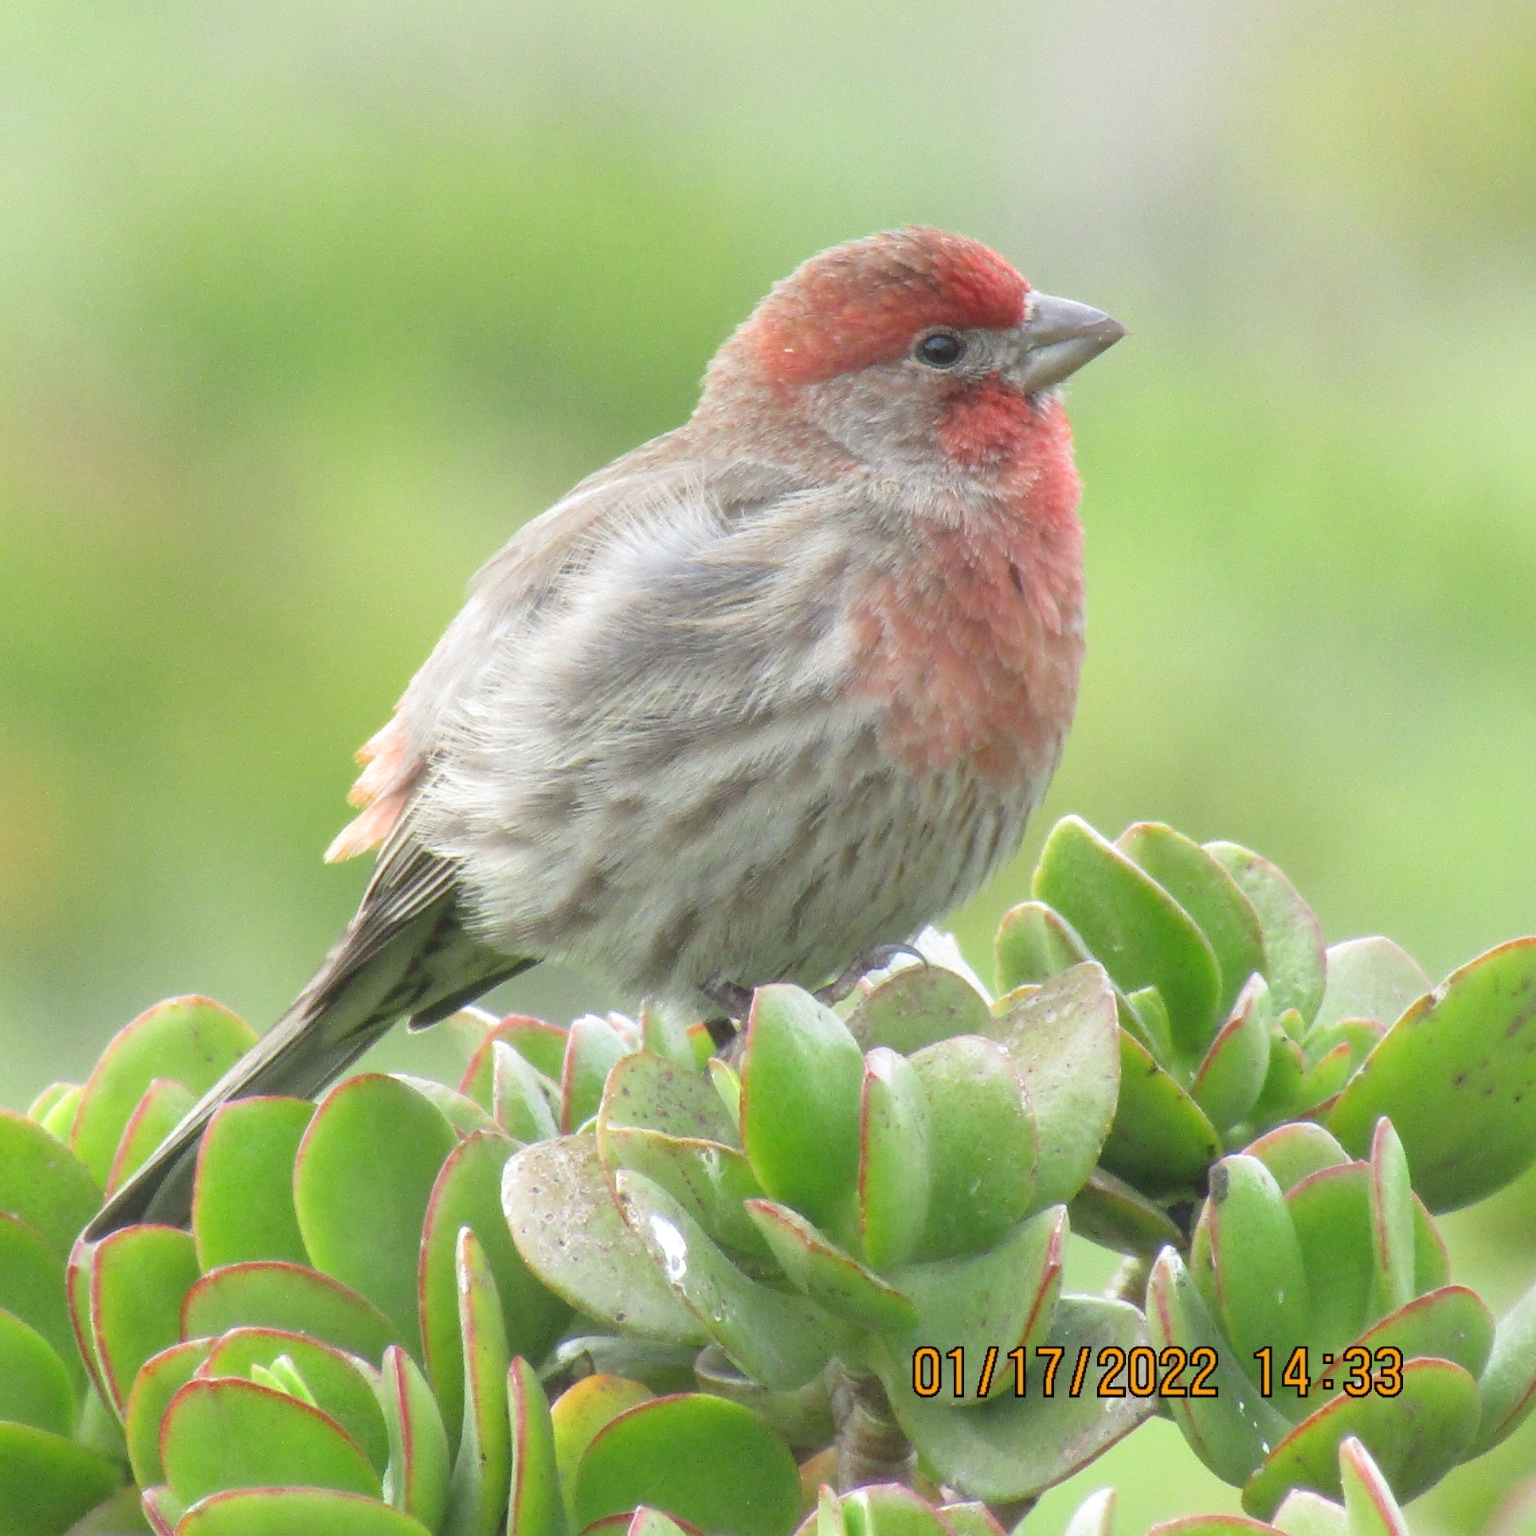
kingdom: Animalia
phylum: Chordata
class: Aves
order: Passeriformes
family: Fringillidae
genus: Haemorhous
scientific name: Haemorhous mexicanus
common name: House finch
